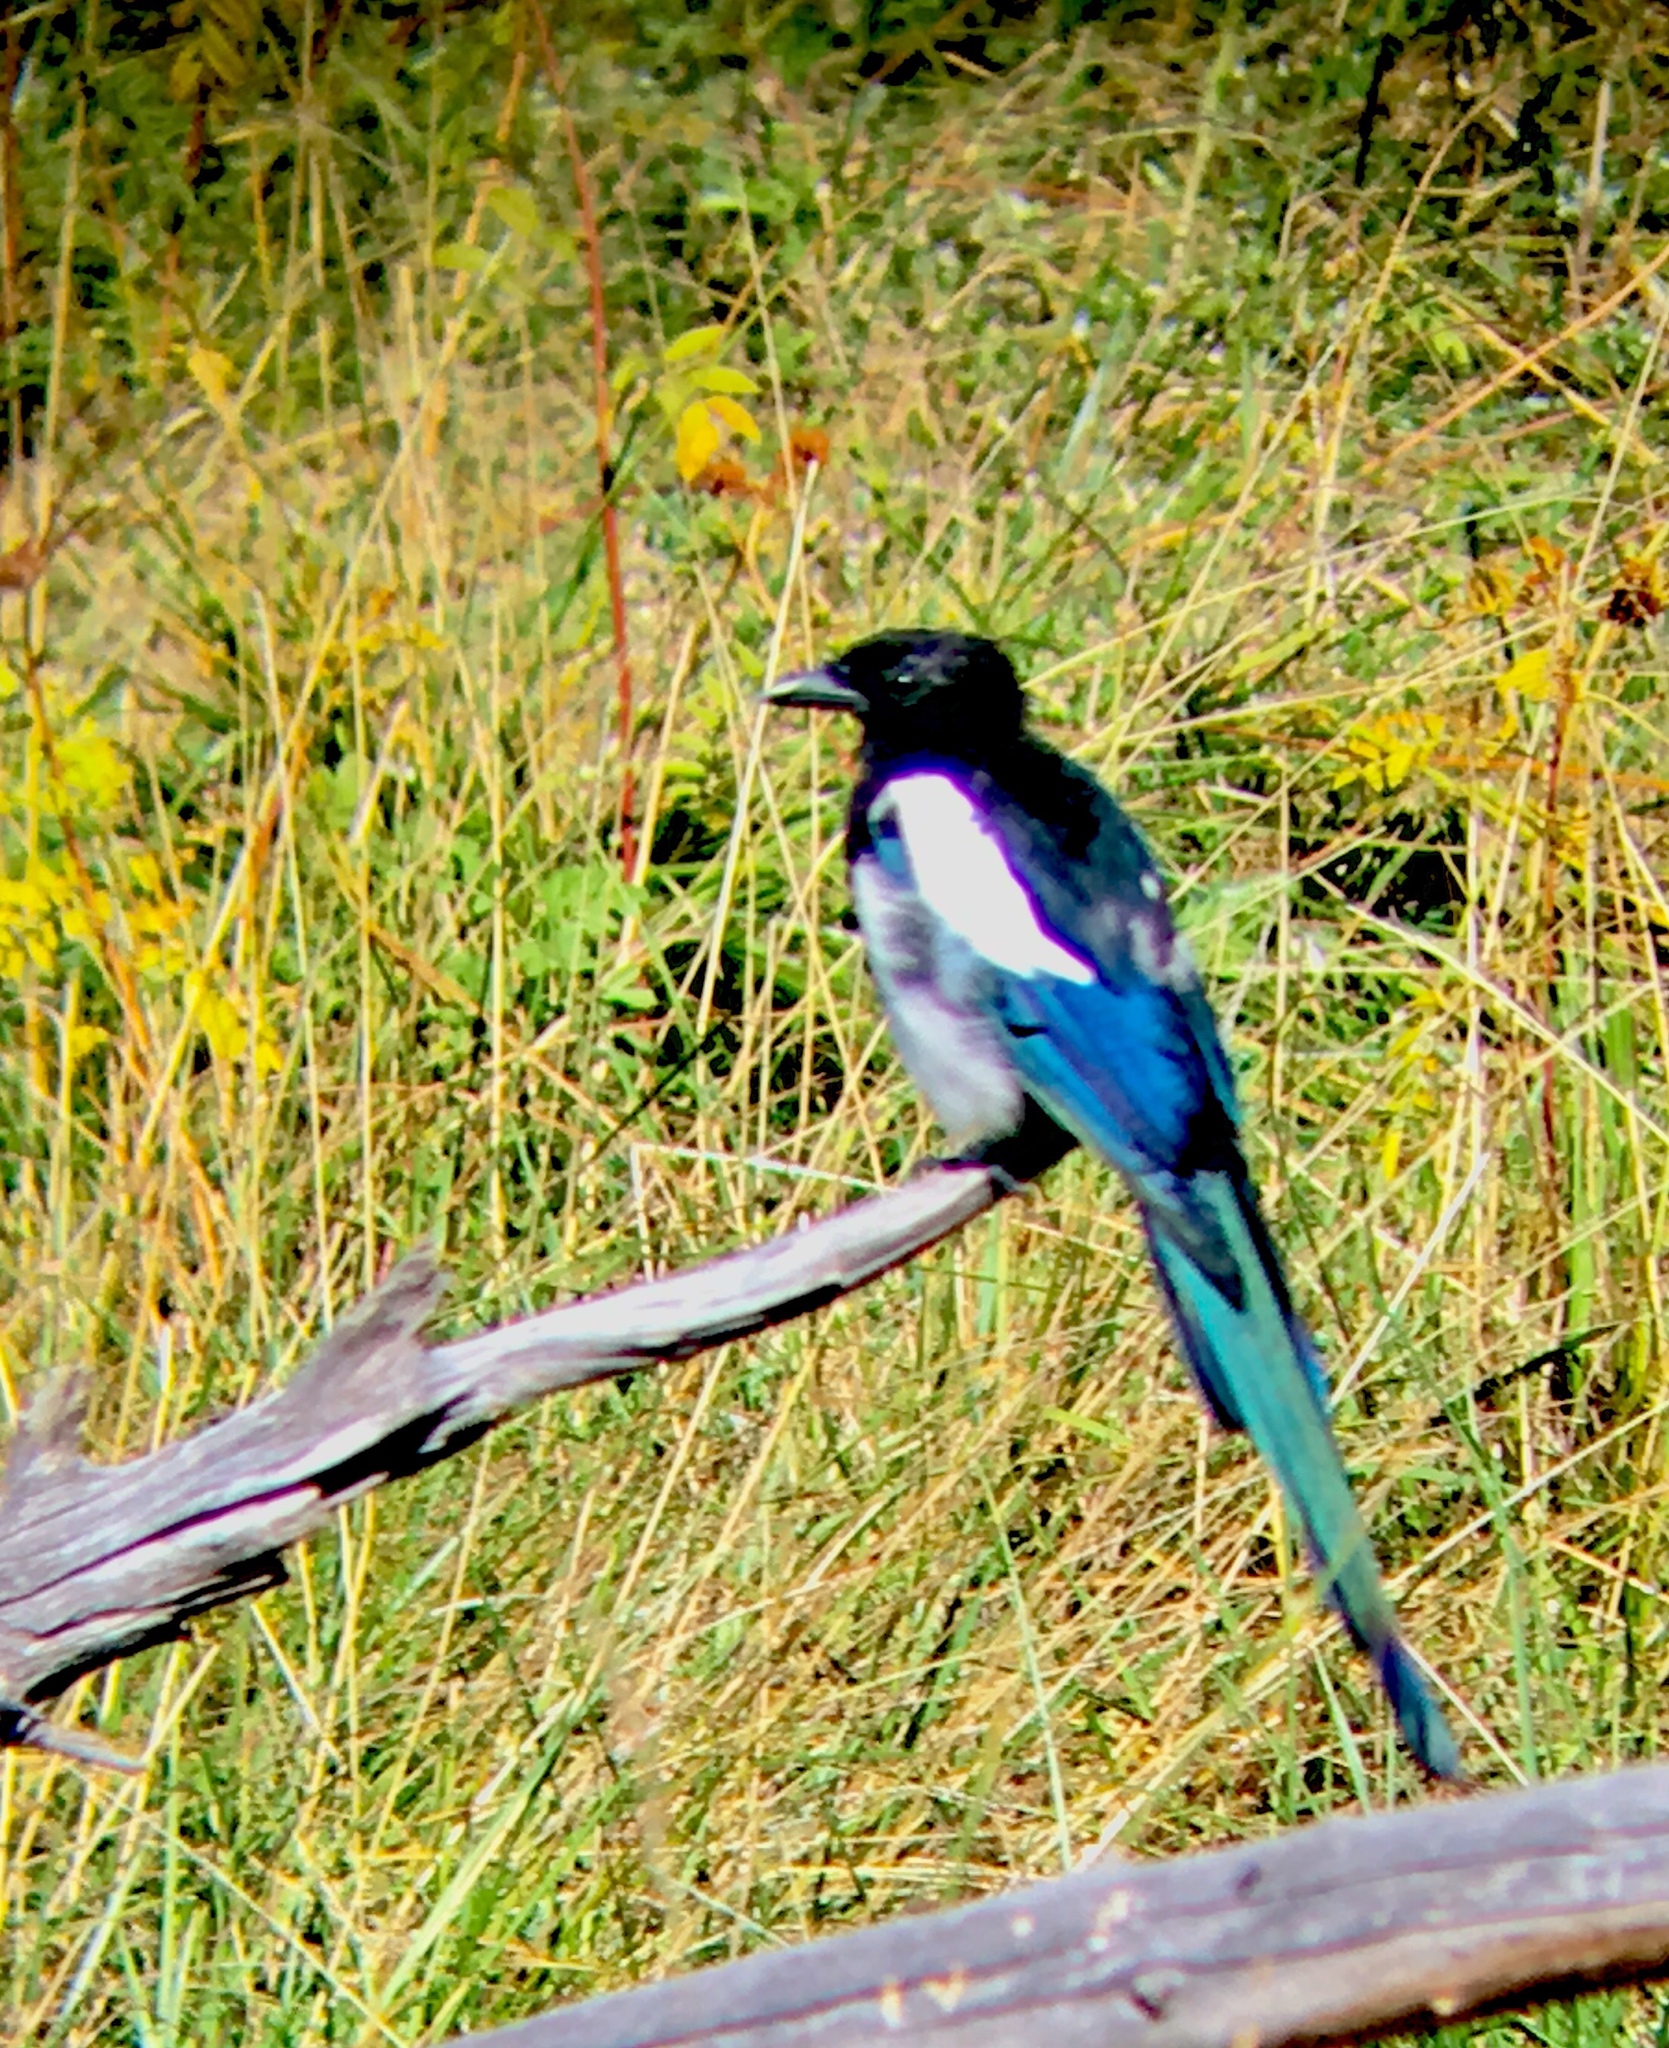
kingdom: Animalia
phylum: Chordata
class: Aves
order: Passeriformes
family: Corvidae
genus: Pica
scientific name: Pica hudsonia
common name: Black-billed magpie
